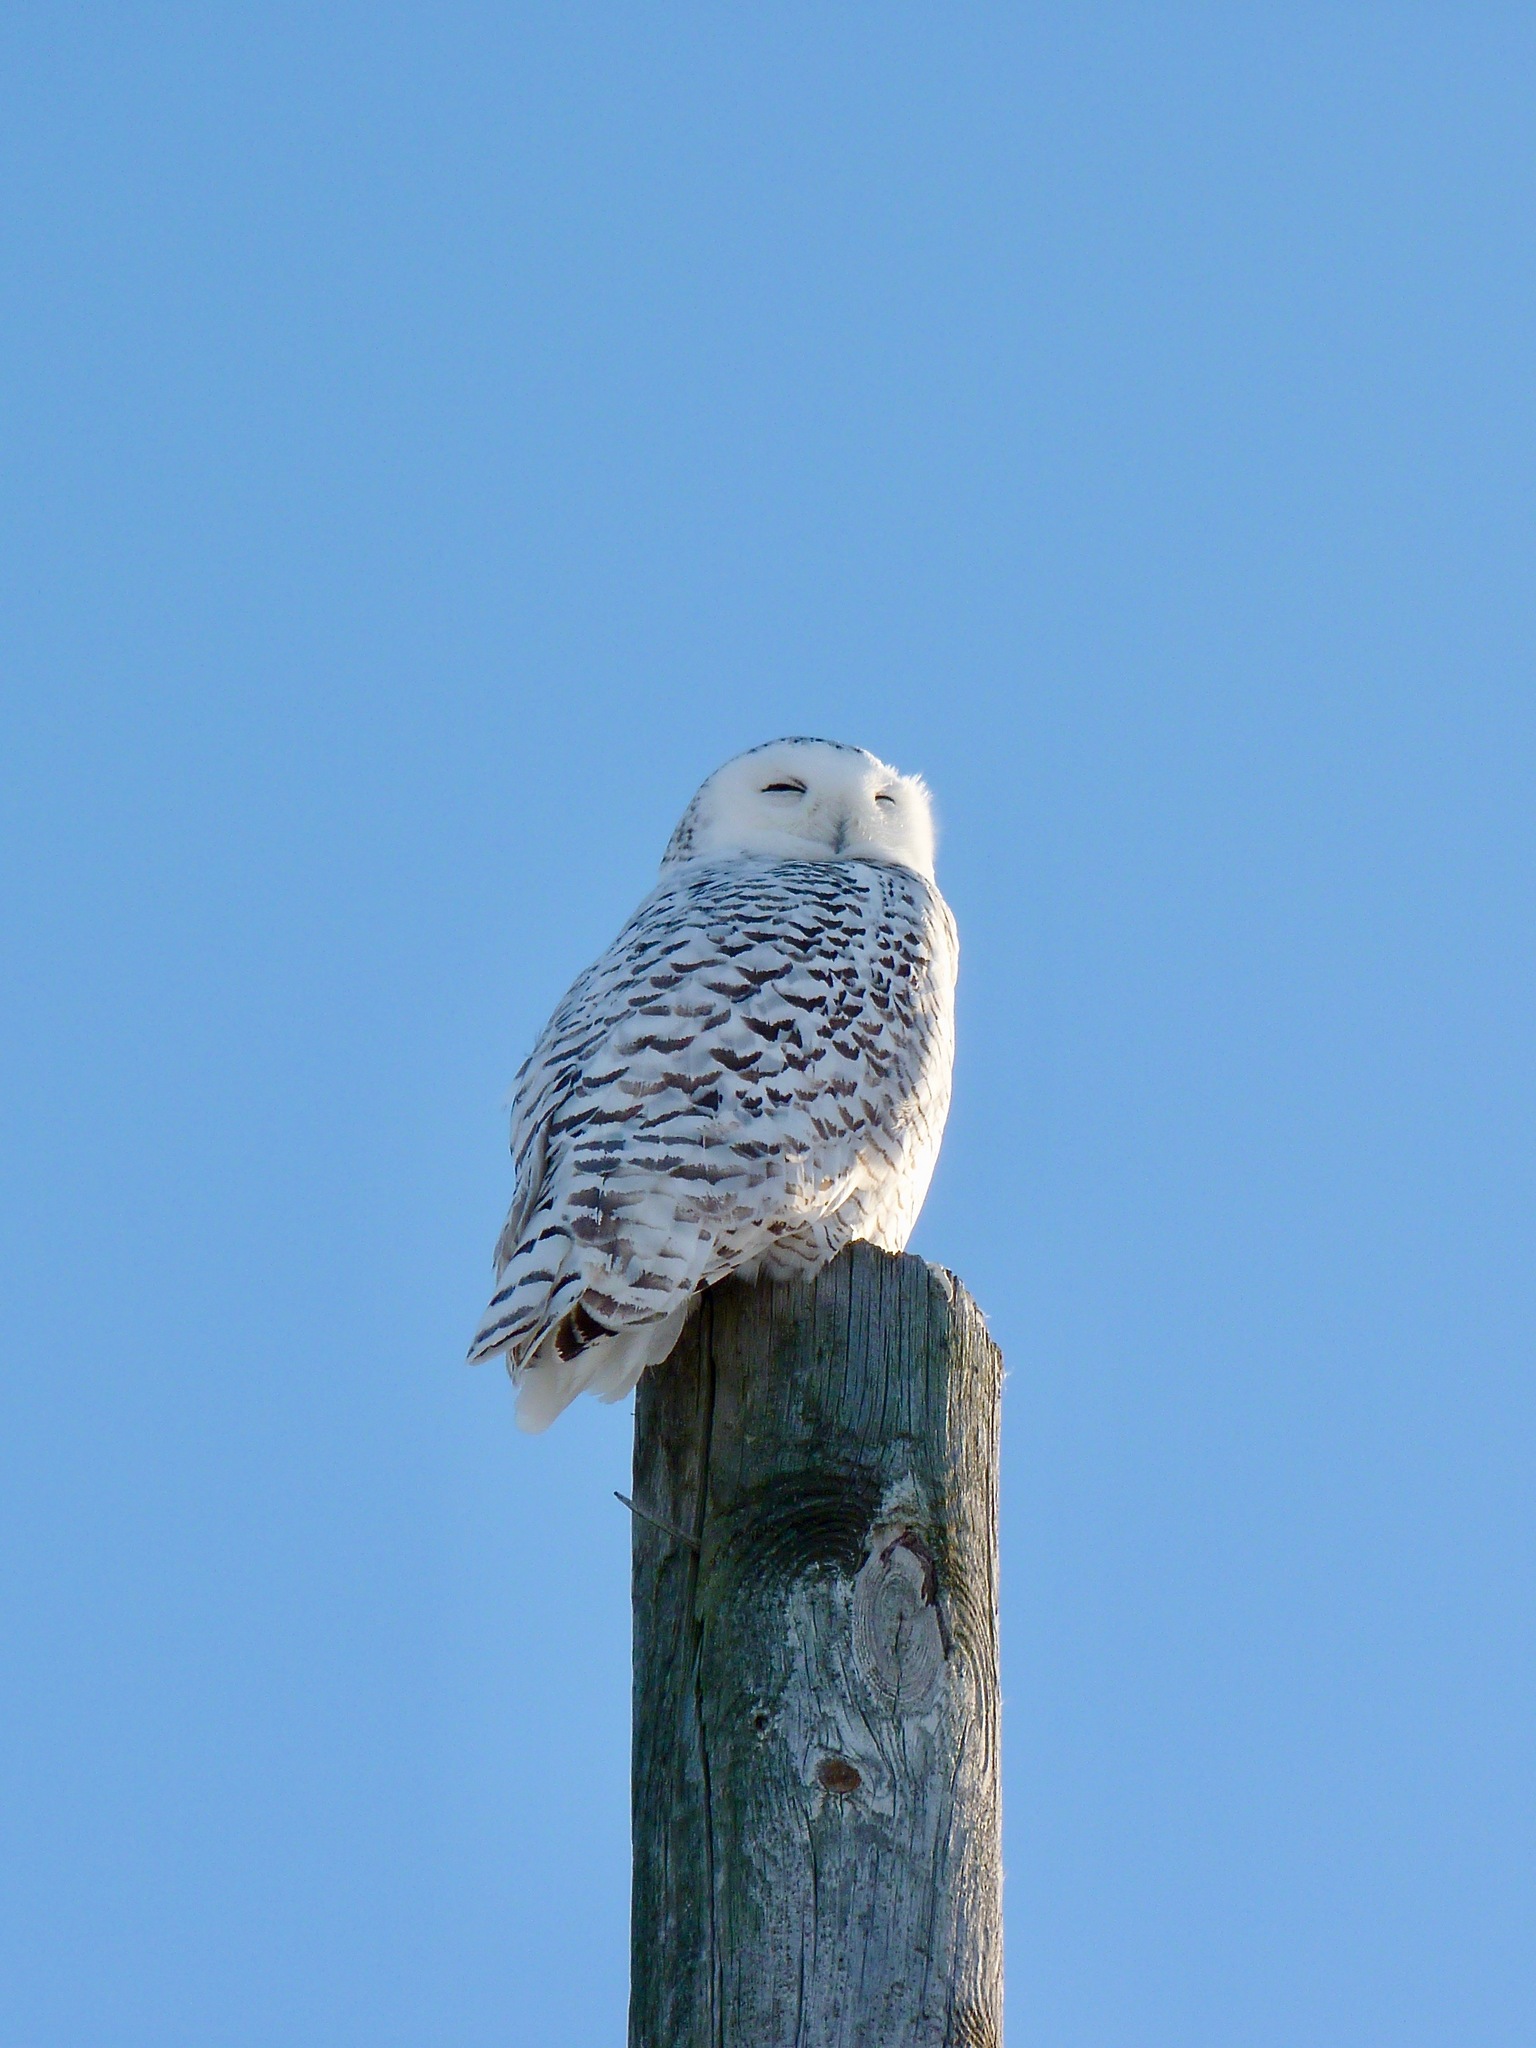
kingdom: Animalia
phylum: Chordata
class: Aves
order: Strigiformes
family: Strigidae
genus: Bubo
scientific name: Bubo scandiacus
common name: Snowy owl
